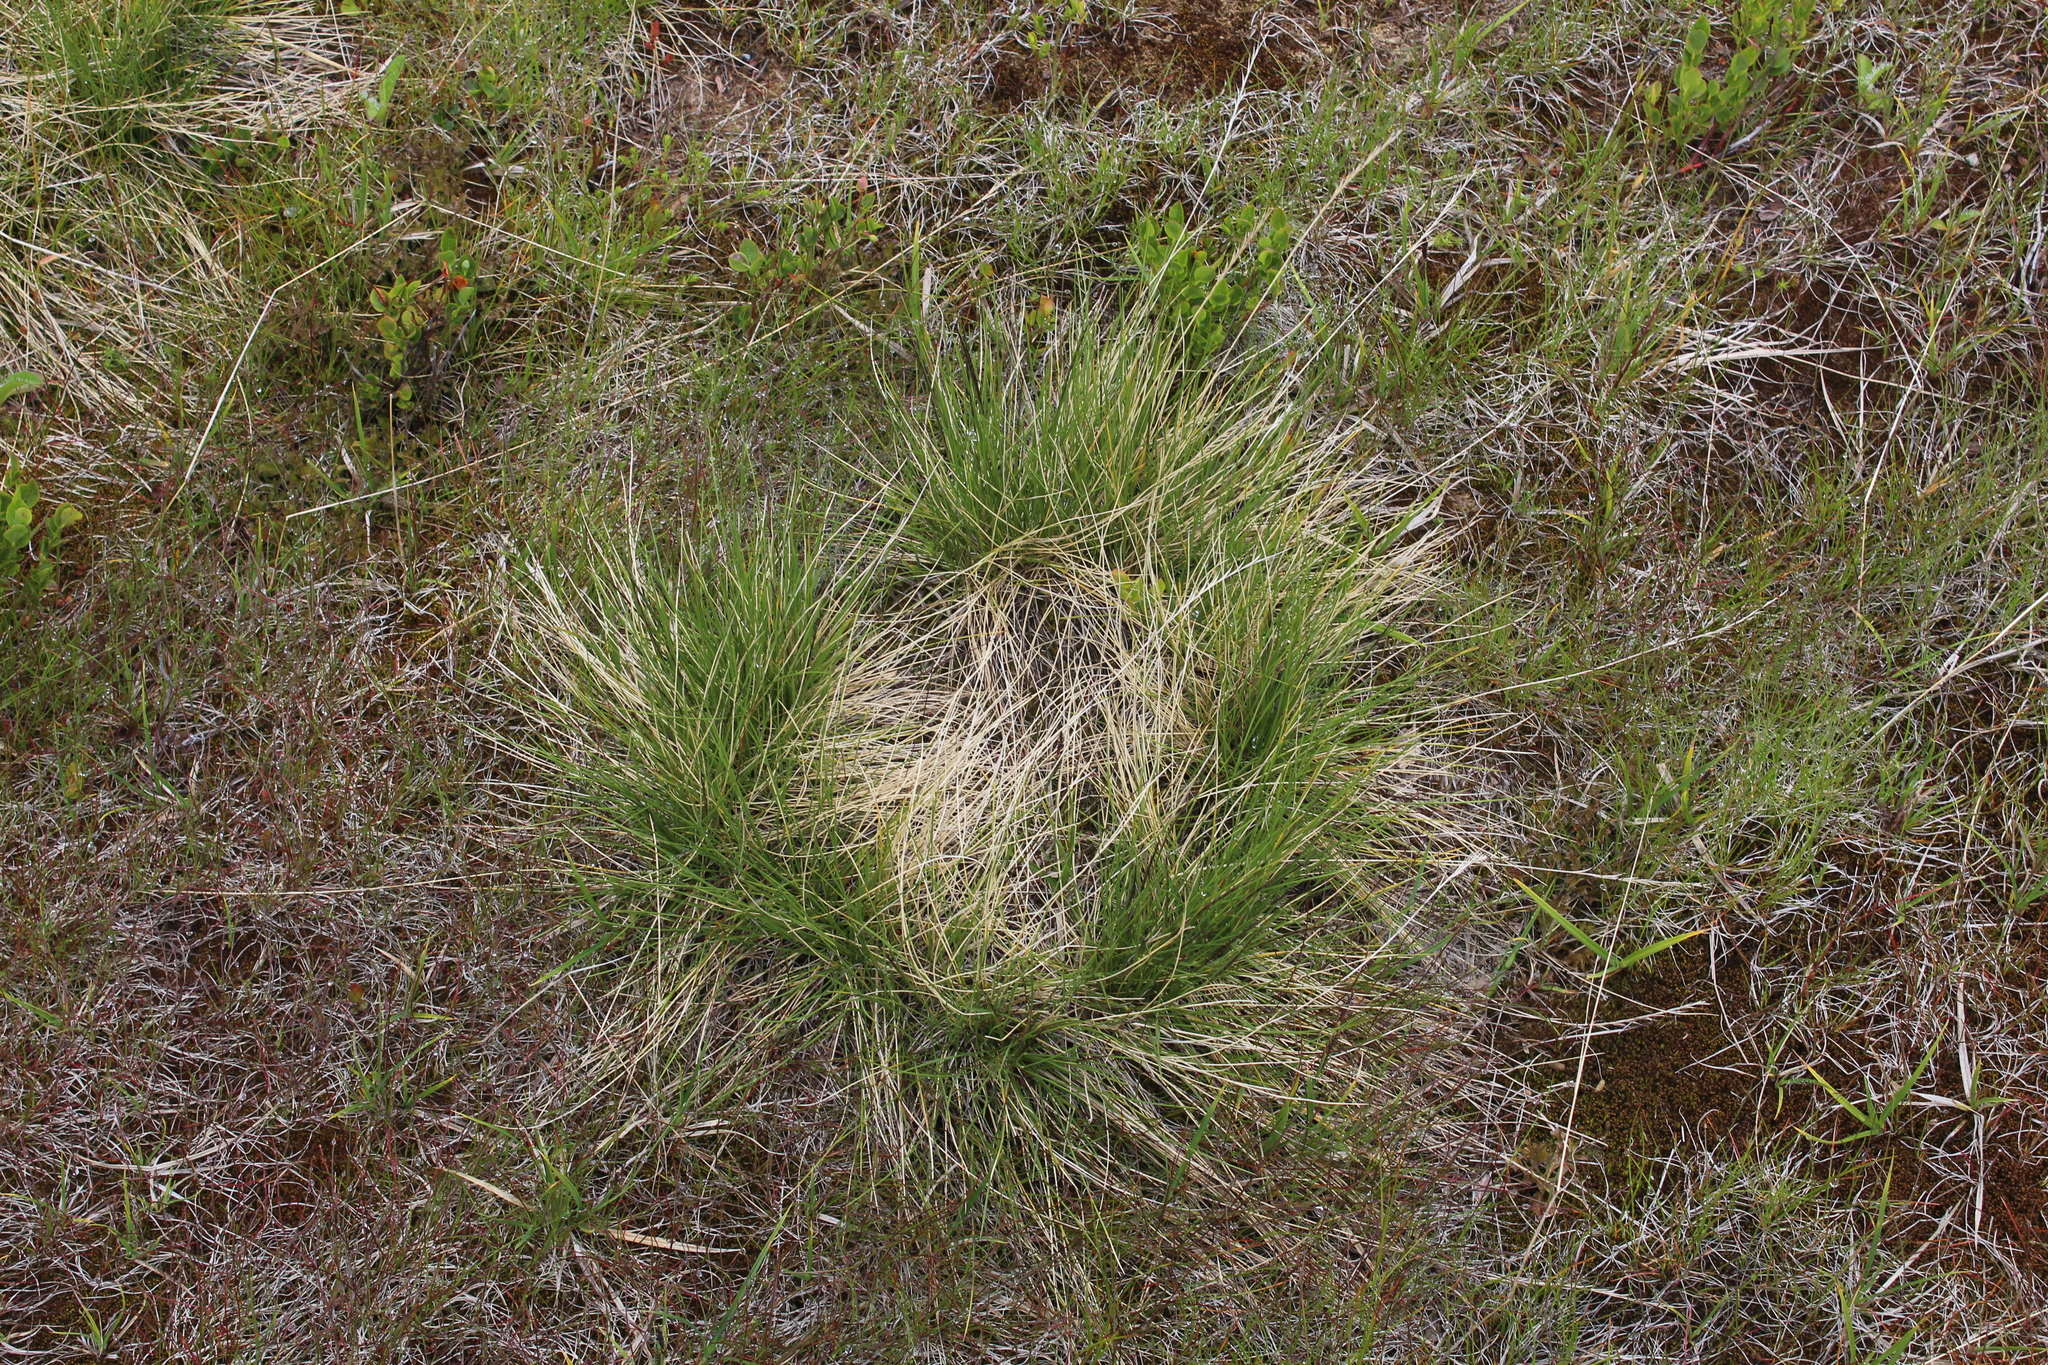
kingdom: Plantae
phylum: Tracheophyta
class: Liliopsida
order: Poales
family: Poaceae
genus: Nardus
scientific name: Nardus stricta
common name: Mat-grass
